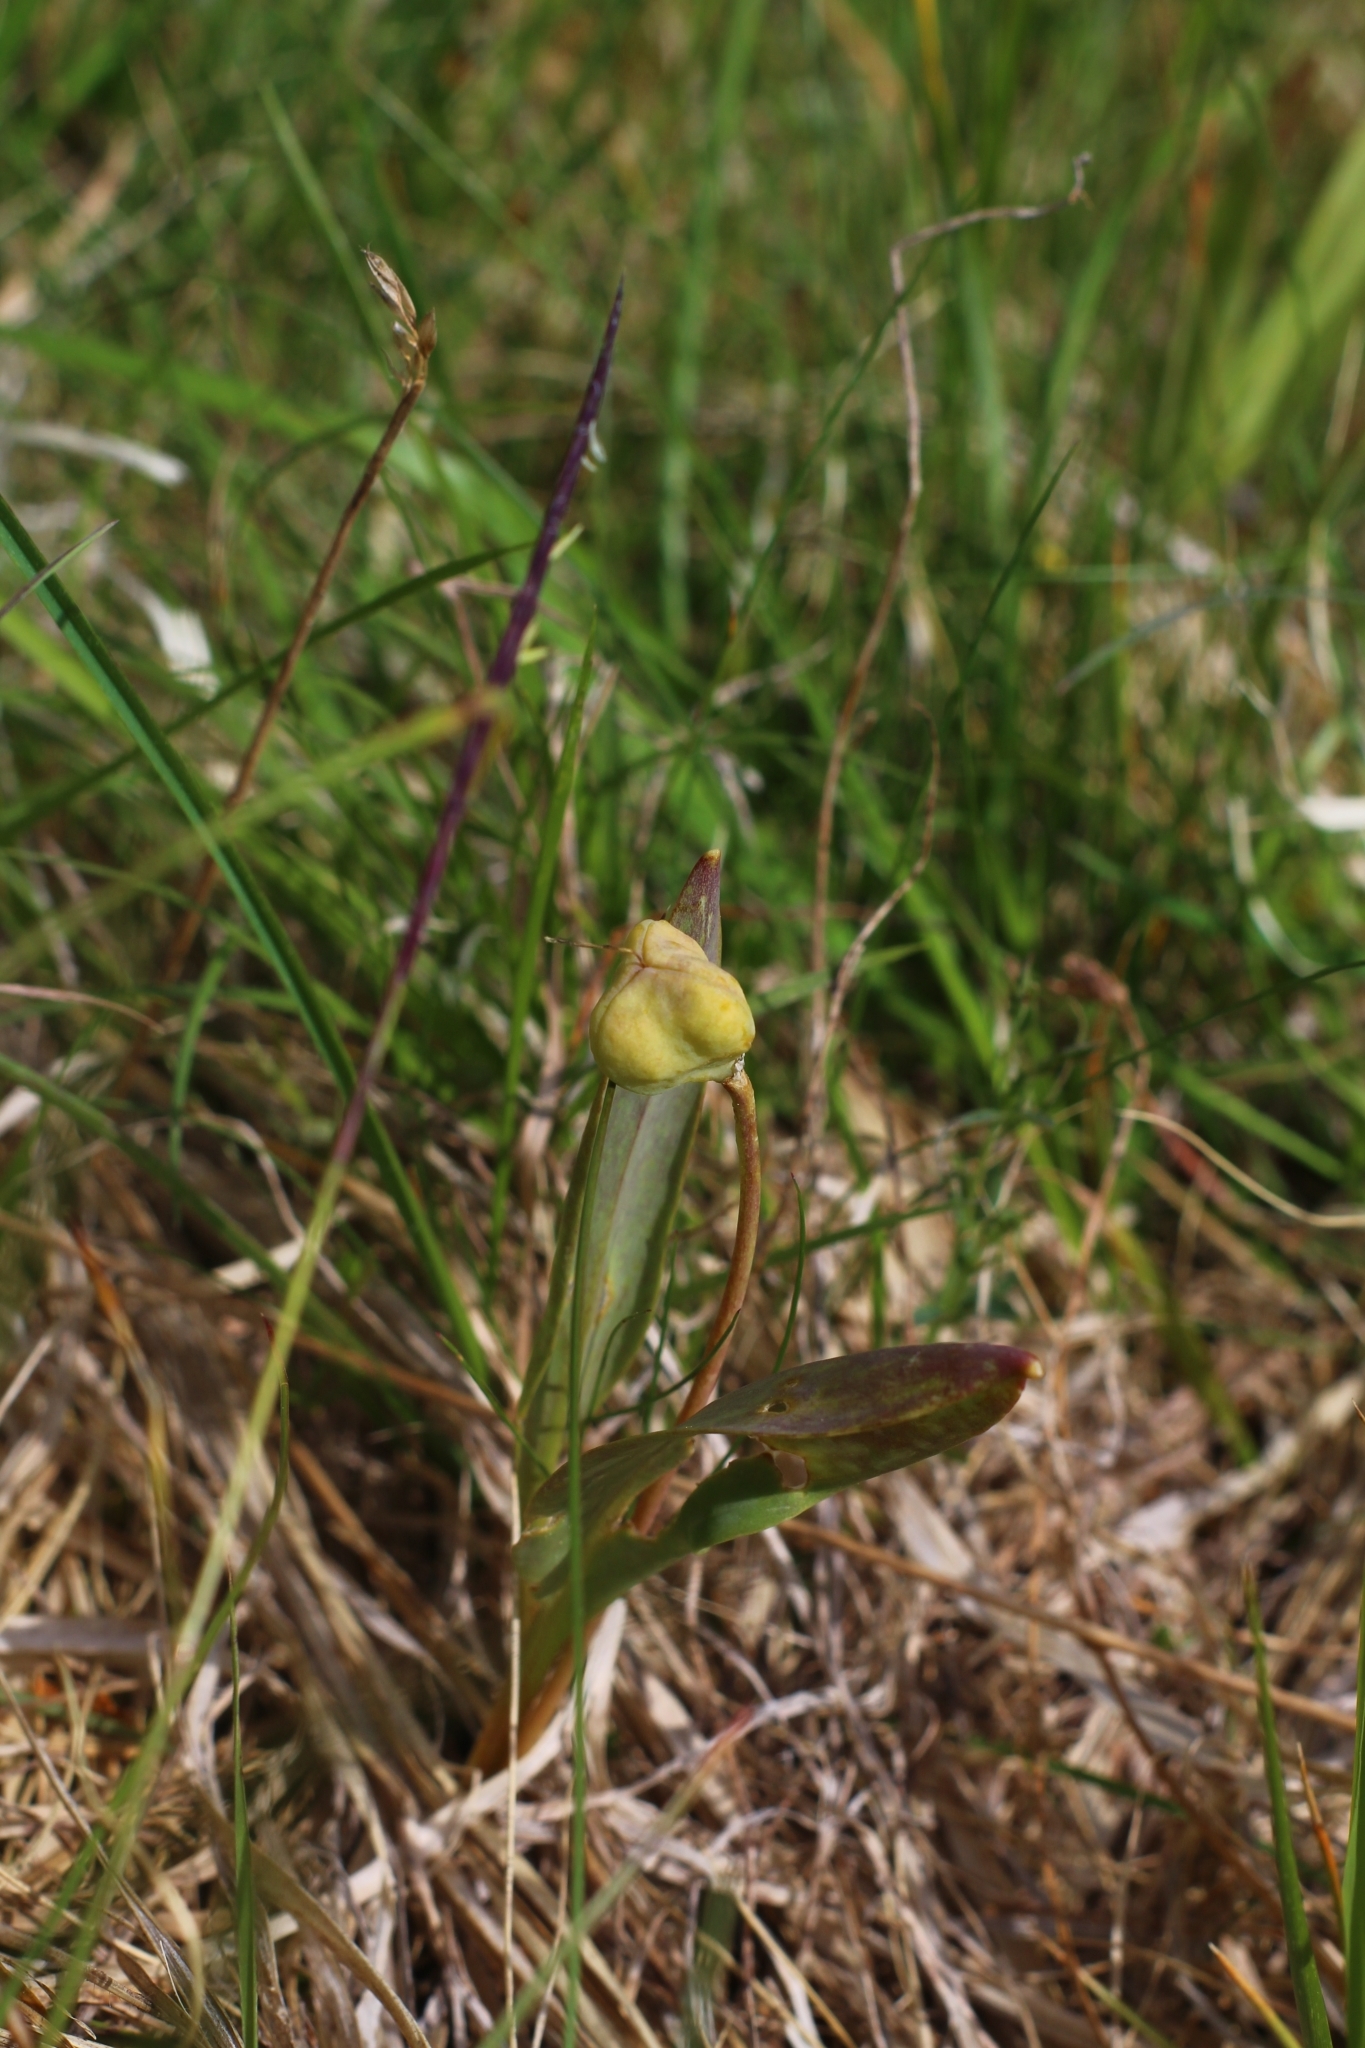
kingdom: Plantae
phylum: Tracheophyta
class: Liliopsida
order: Liliales
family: Liliaceae
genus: Erythronium
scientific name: Erythronium dens-canis
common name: Dog's-tooth-violet
